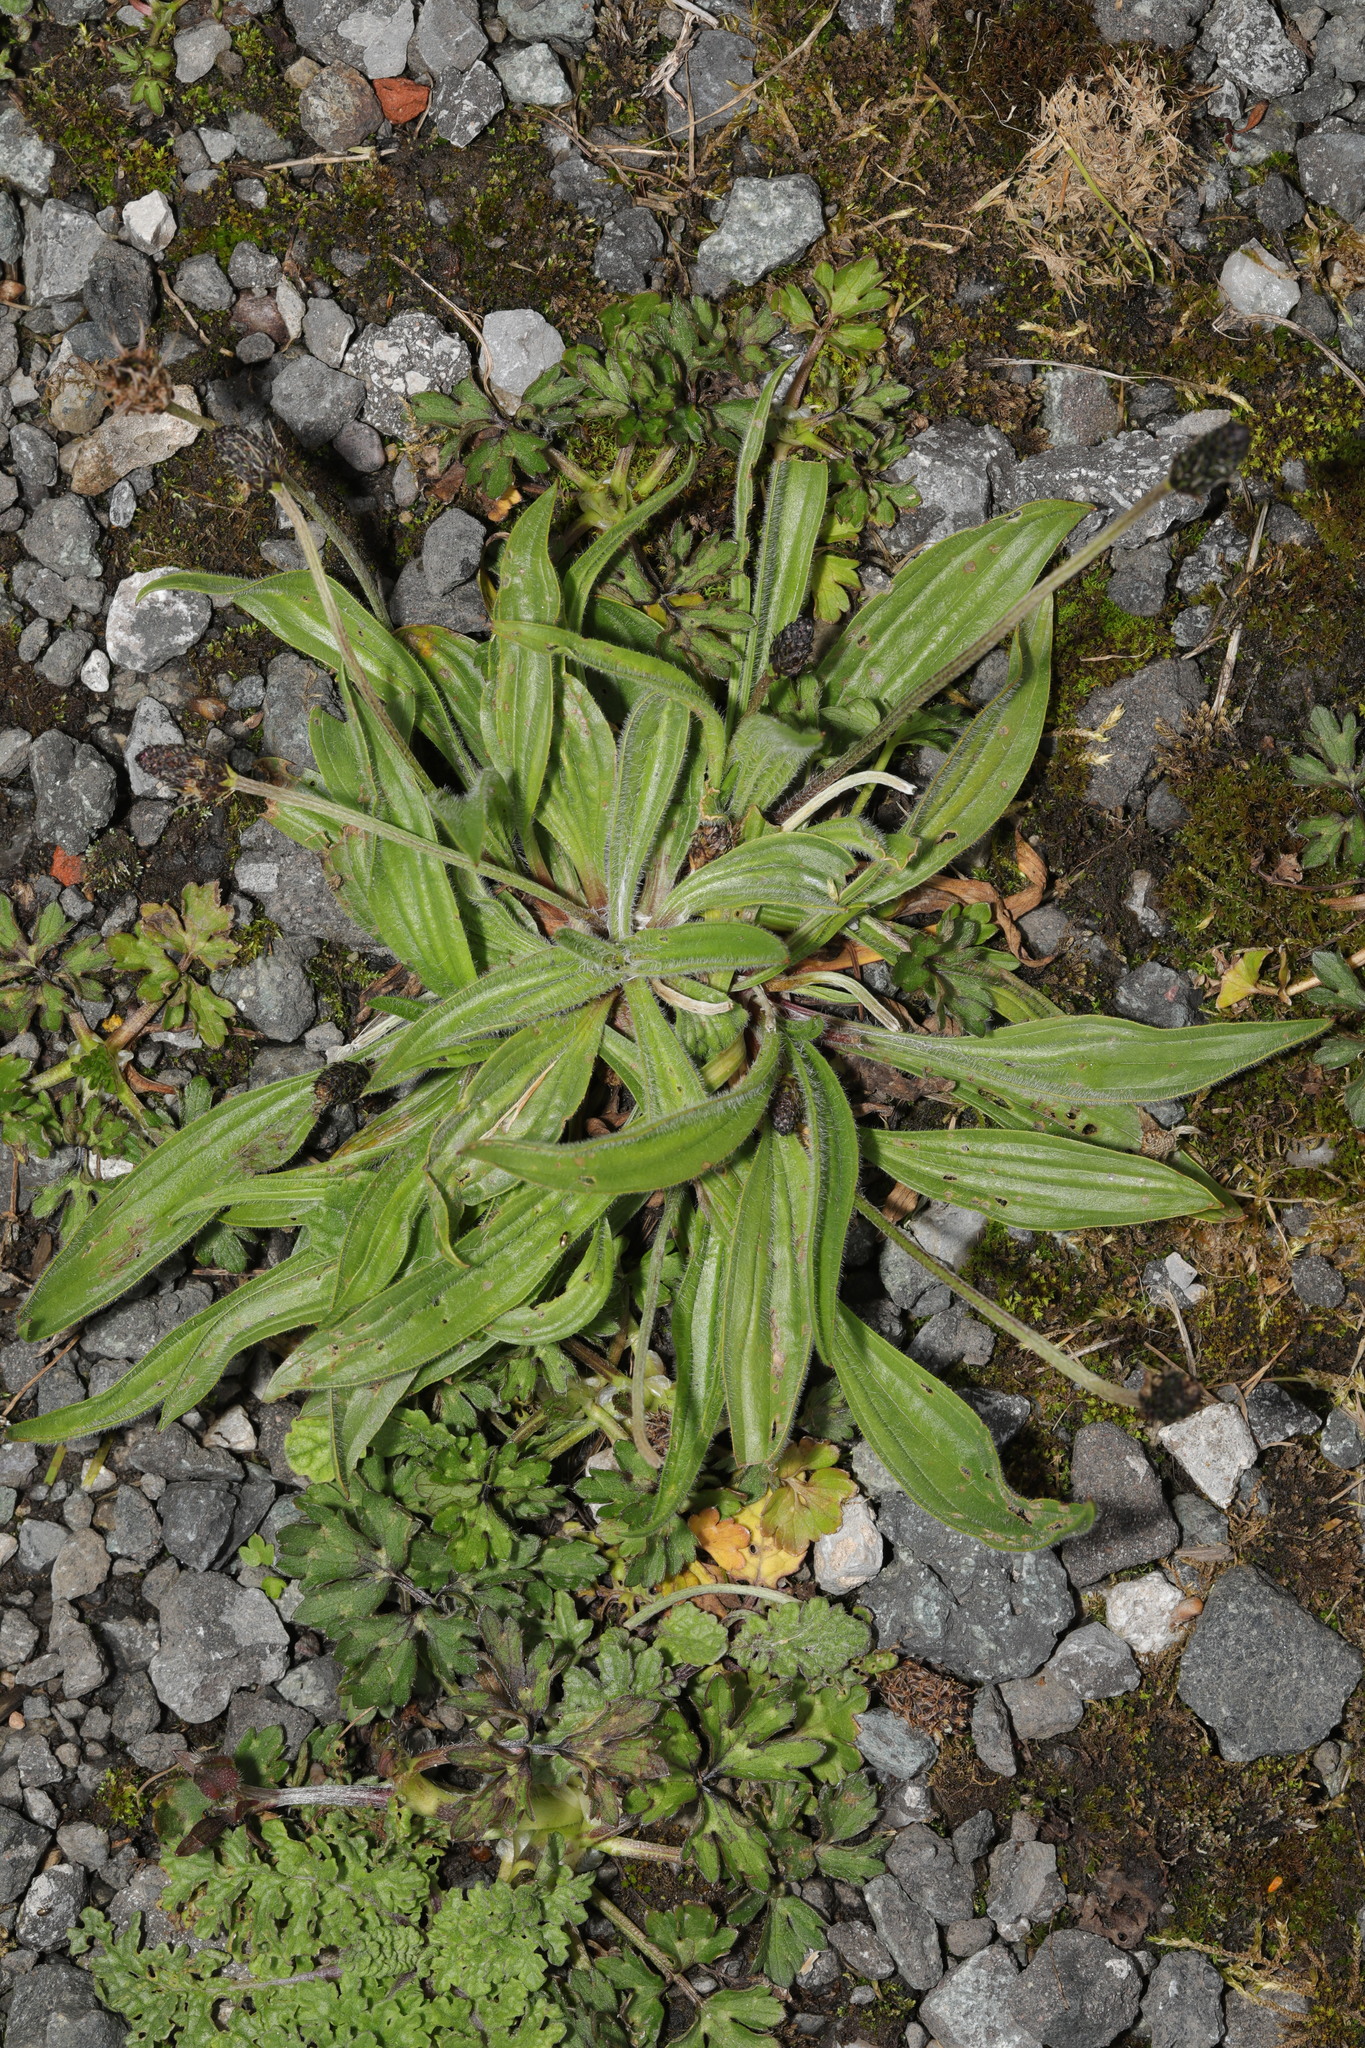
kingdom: Plantae
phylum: Tracheophyta
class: Magnoliopsida
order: Lamiales
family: Plantaginaceae
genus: Plantago
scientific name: Plantago lanceolata
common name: Ribwort plantain
